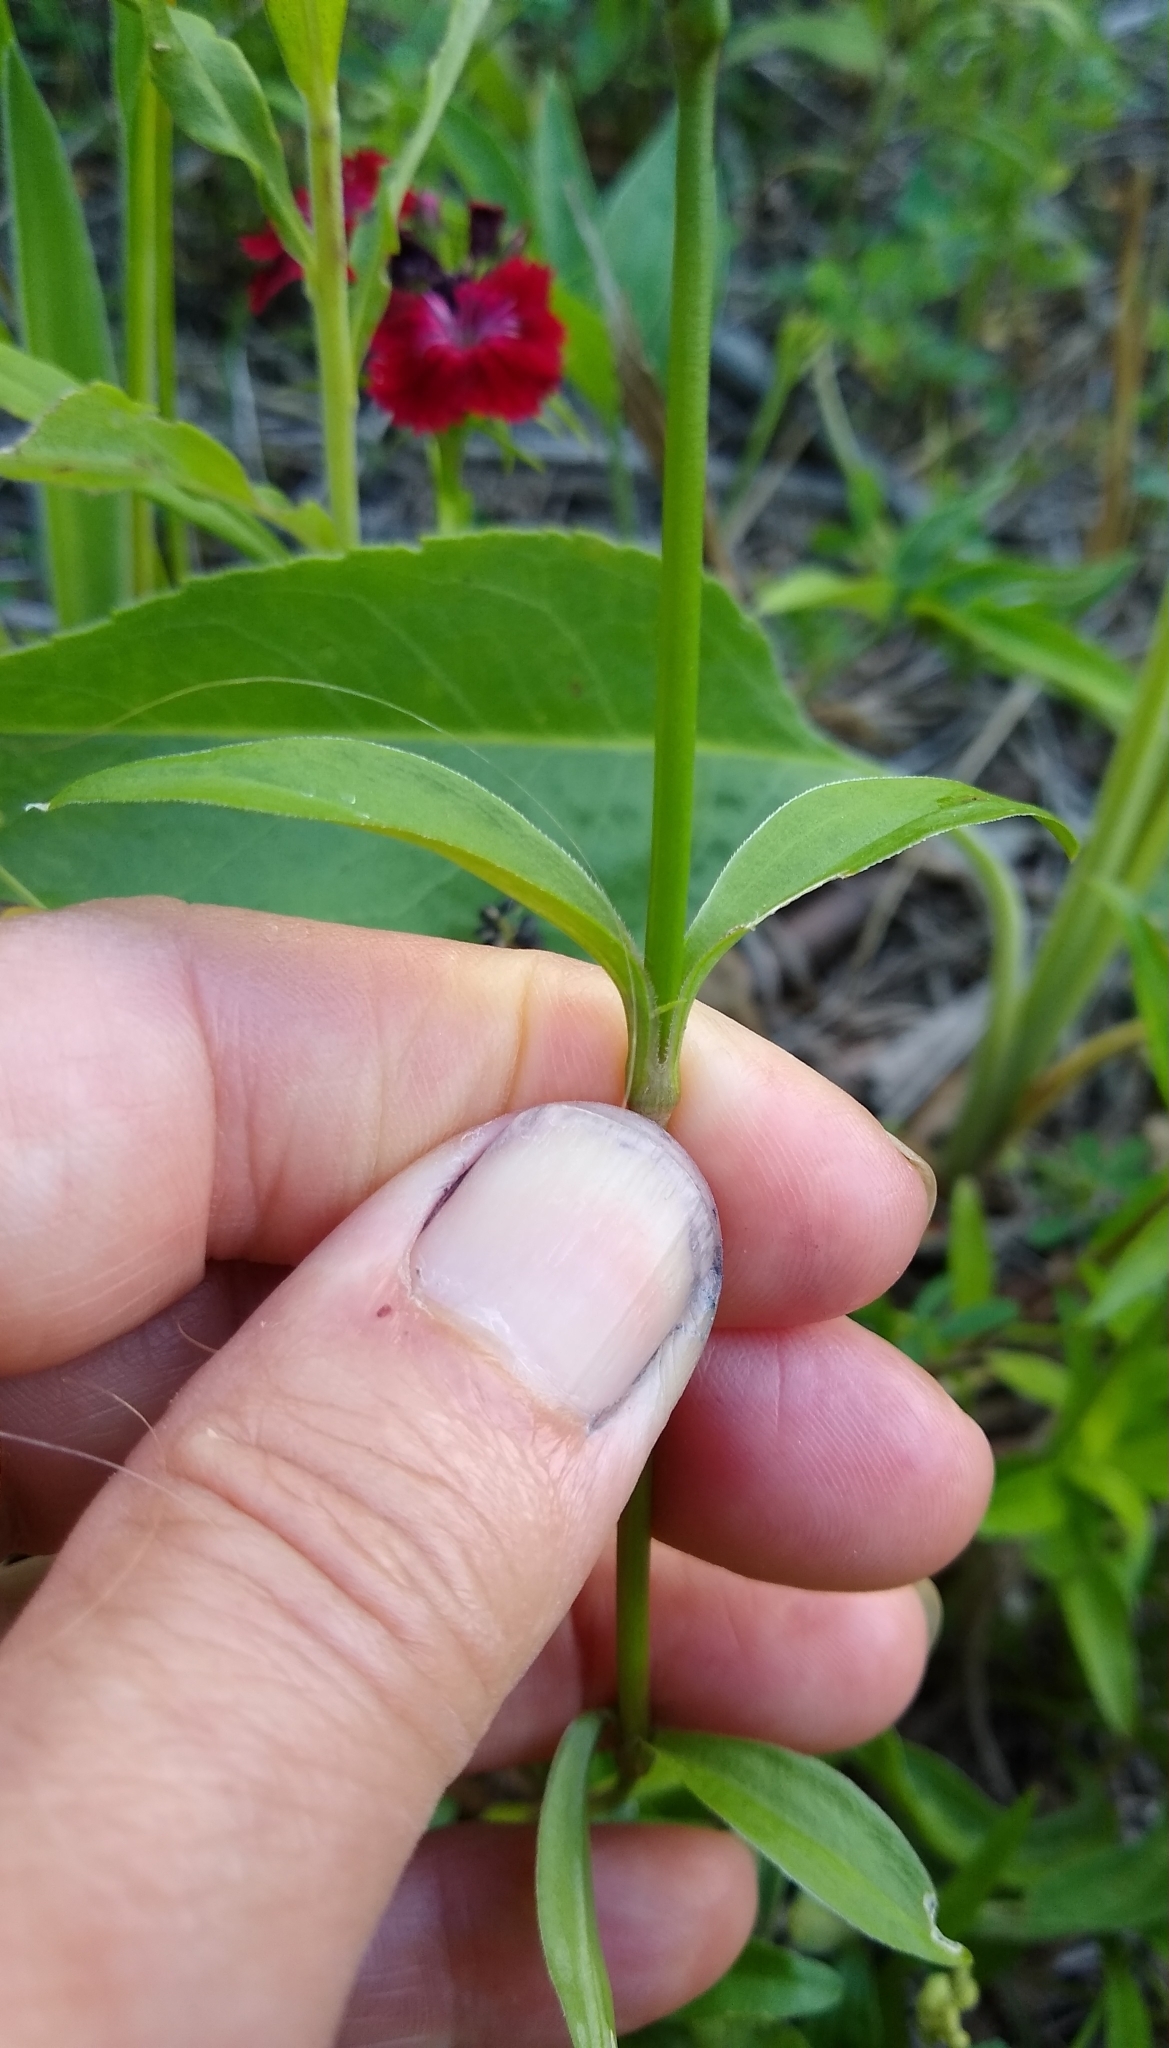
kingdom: Plantae
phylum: Tracheophyta
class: Magnoliopsida
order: Caryophyllales
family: Caryophyllaceae
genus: Dianthus
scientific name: Dianthus barbatus
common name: Sweet-william
